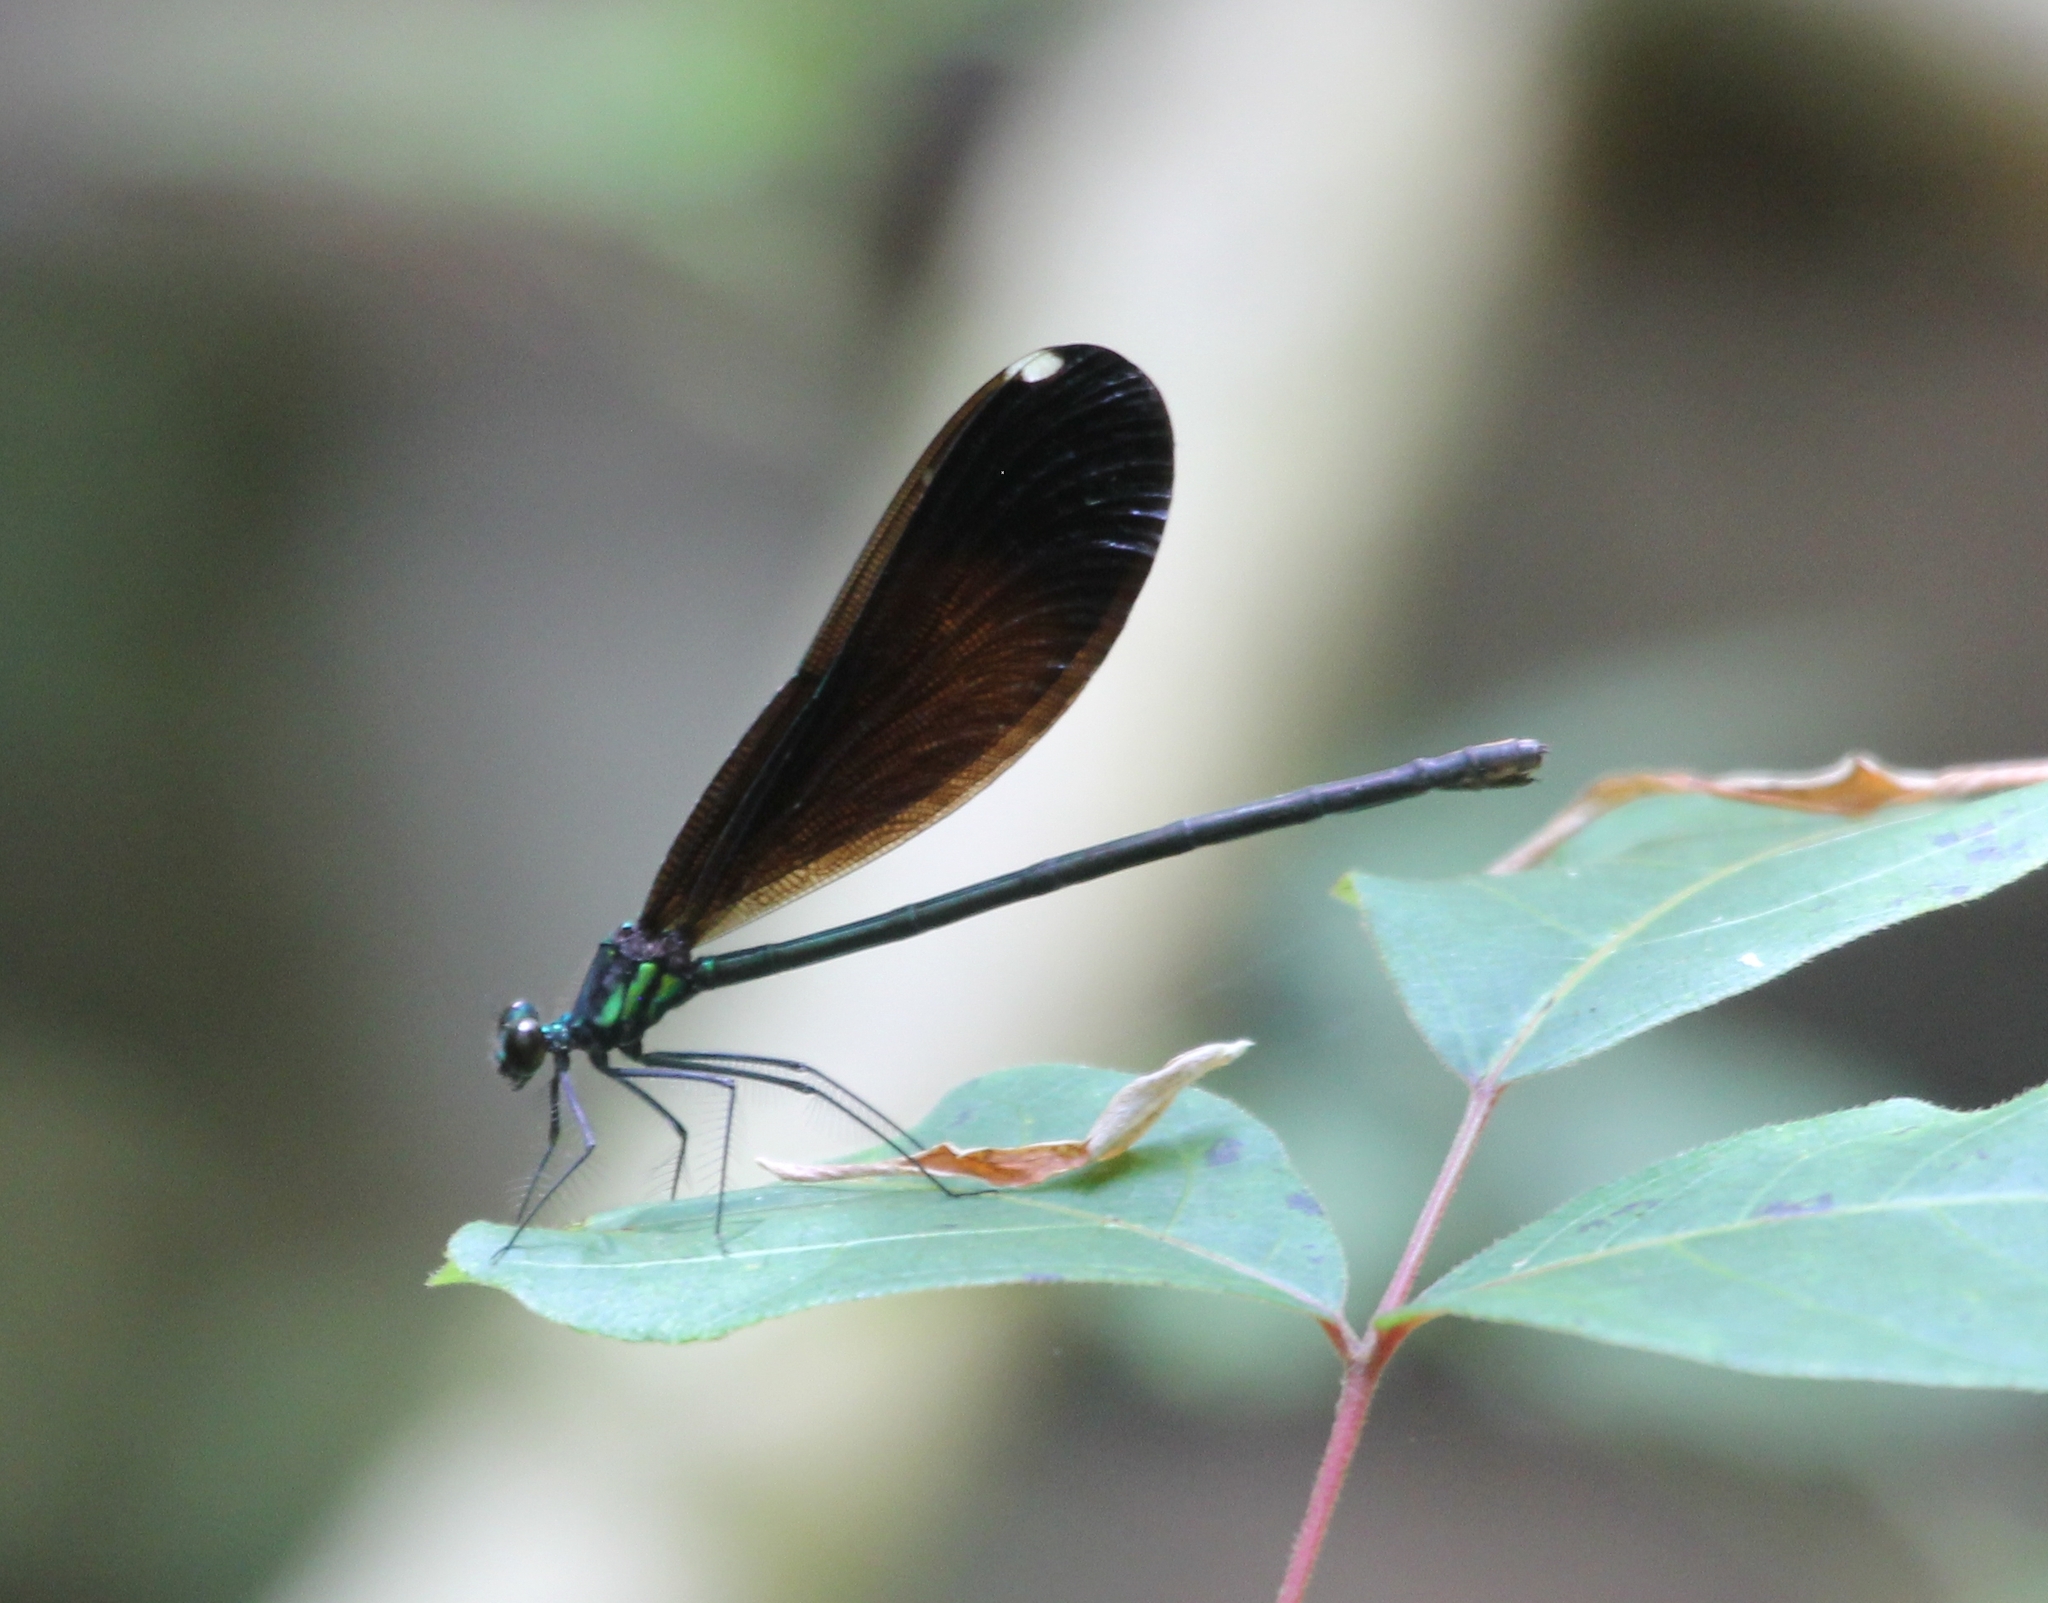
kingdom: Animalia
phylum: Arthropoda
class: Insecta
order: Odonata
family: Calopterygidae
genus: Calopteryx
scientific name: Calopteryx maculata
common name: Ebony jewelwing
